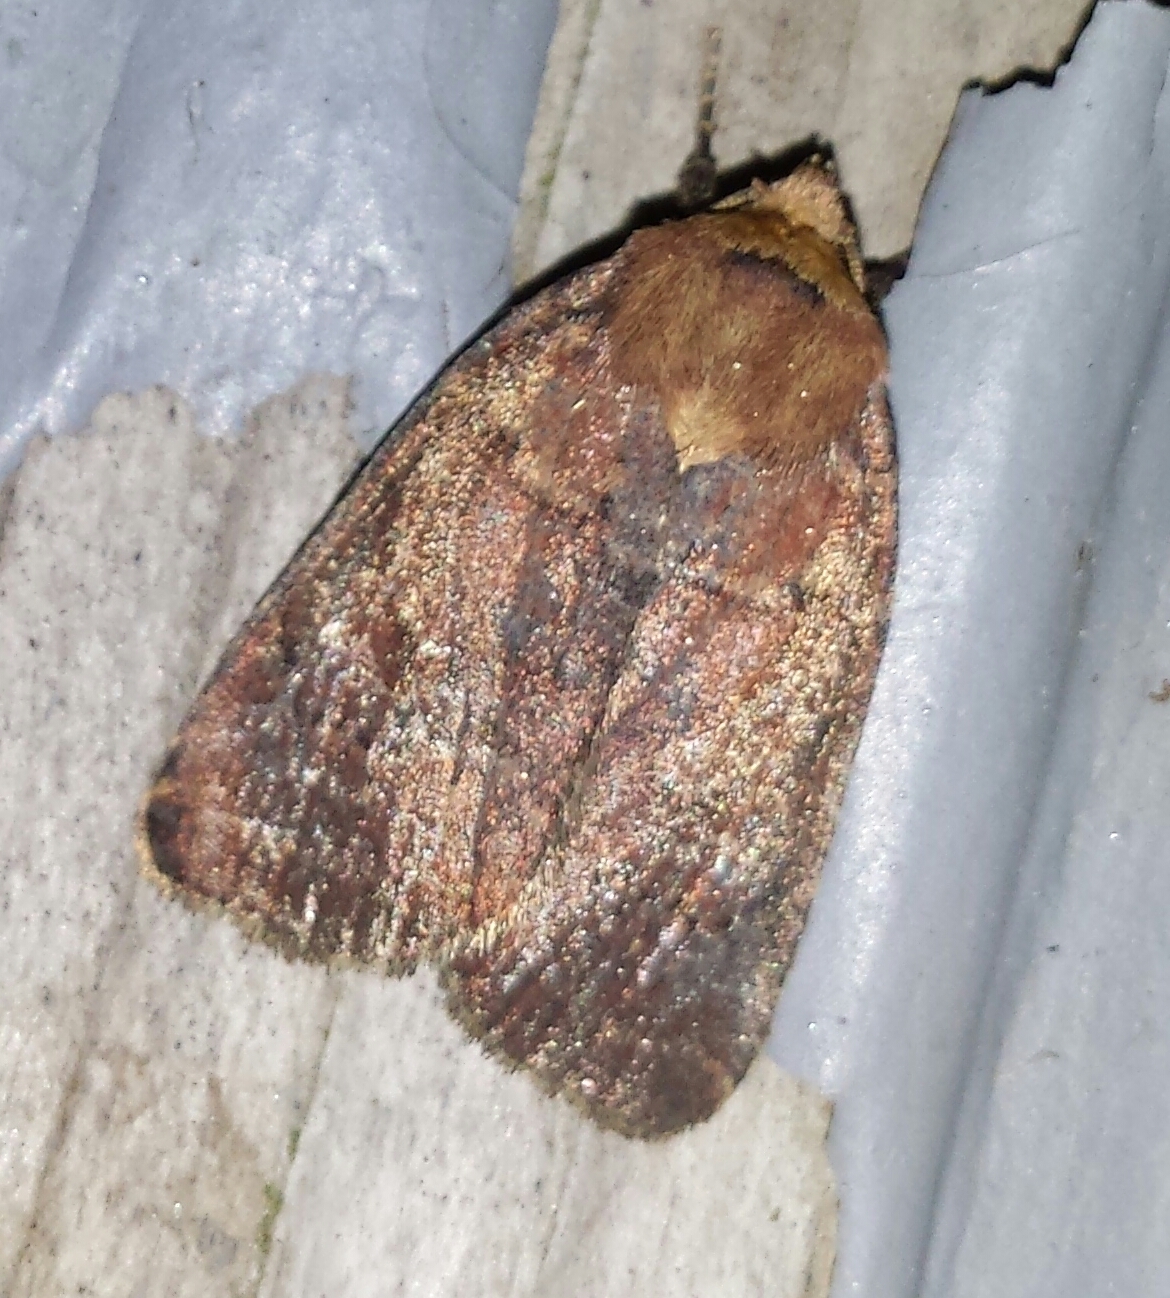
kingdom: Animalia
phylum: Arthropoda
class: Insecta
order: Lepidoptera
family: Noctuidae
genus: Orthodes
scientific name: Orthodes cynica
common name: Cynical quaker
